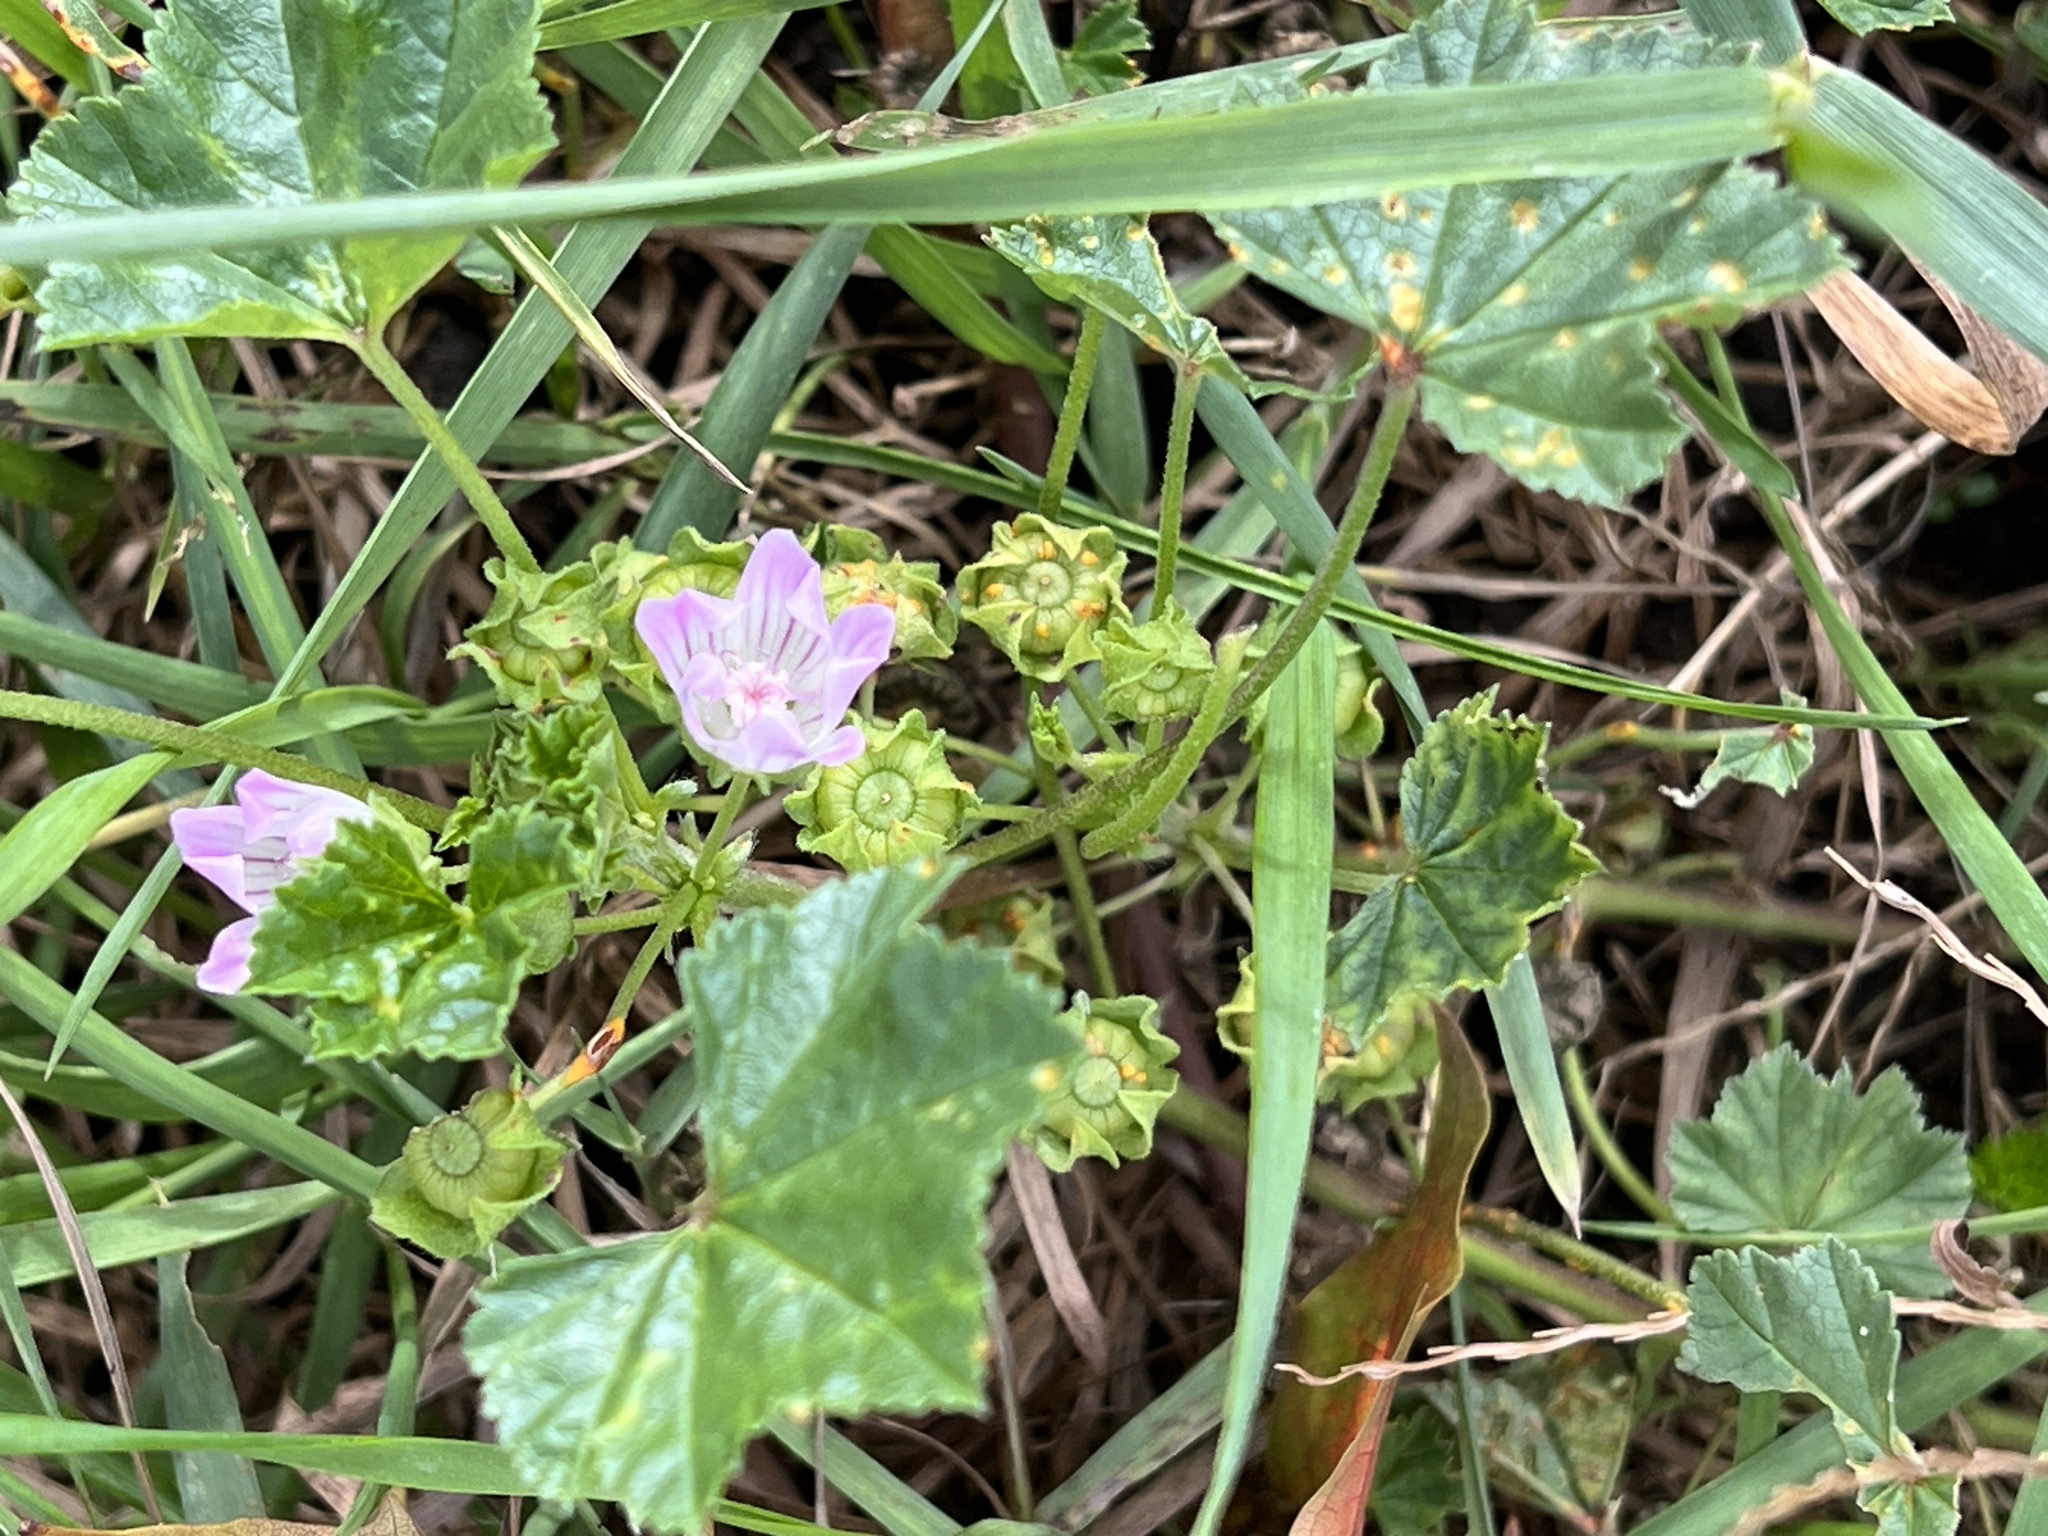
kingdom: Plantae
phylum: Tracheophyta
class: Magnoliopsida
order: Malvales
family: Malvaceae
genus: Malva
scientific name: Malva neglecta
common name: Common mallow
